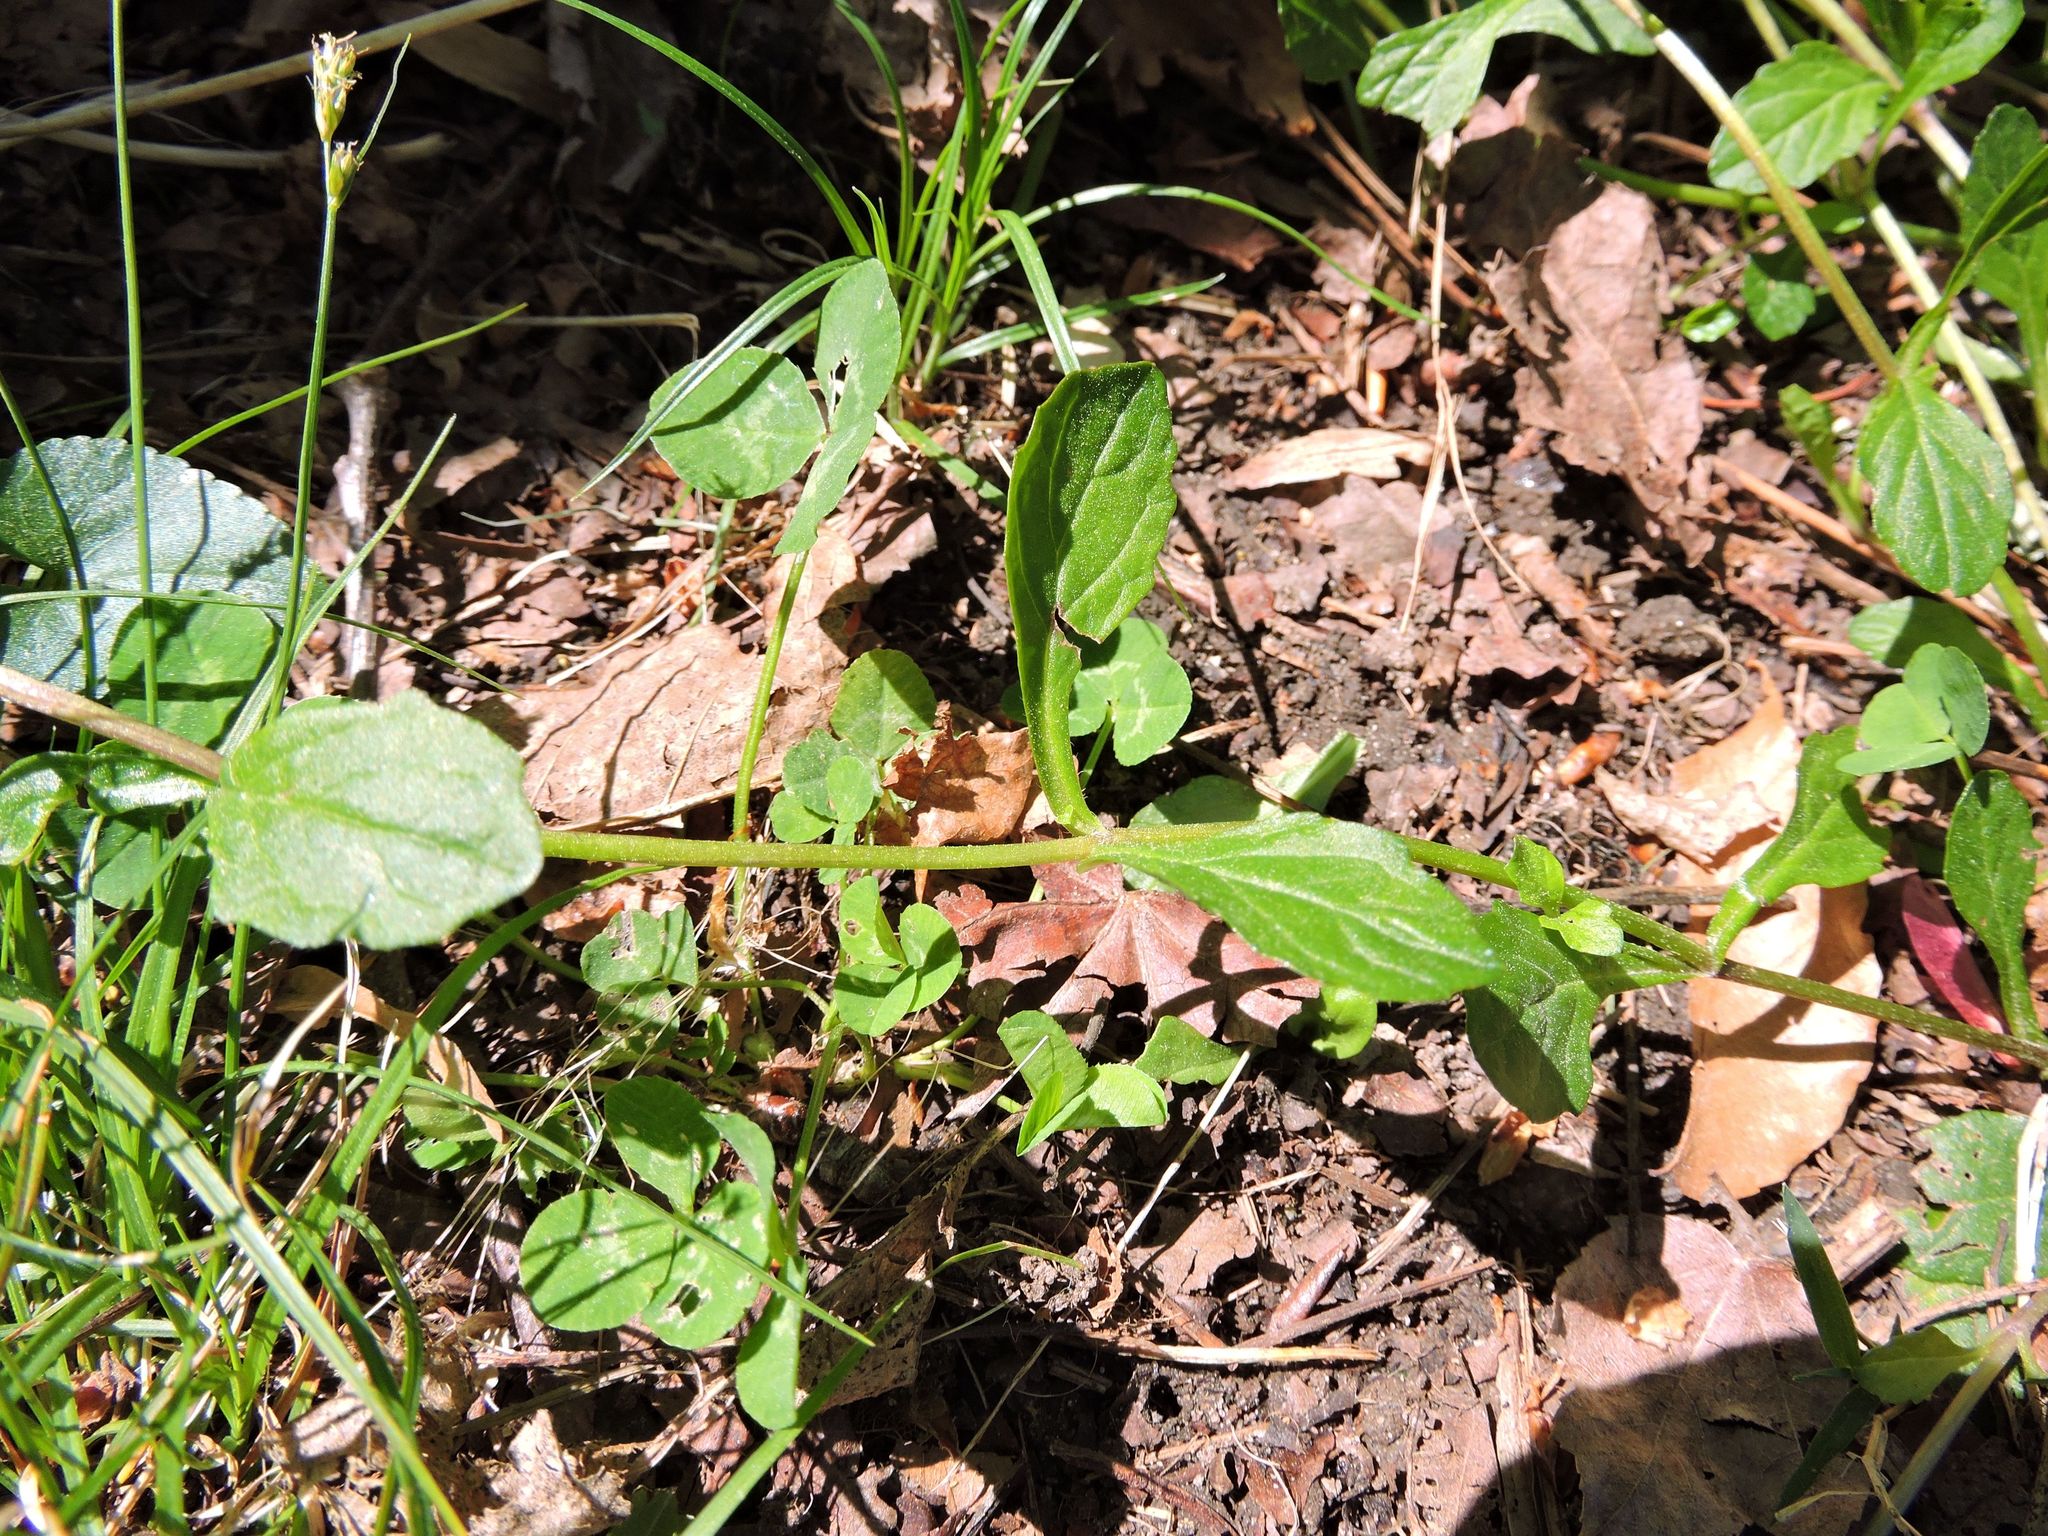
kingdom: Plantae
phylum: Tracheophyta
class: Magnoliopsida
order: Lamiales
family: Lamiaceae
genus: Ajuga
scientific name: Ajuga reptans
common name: Bugle
